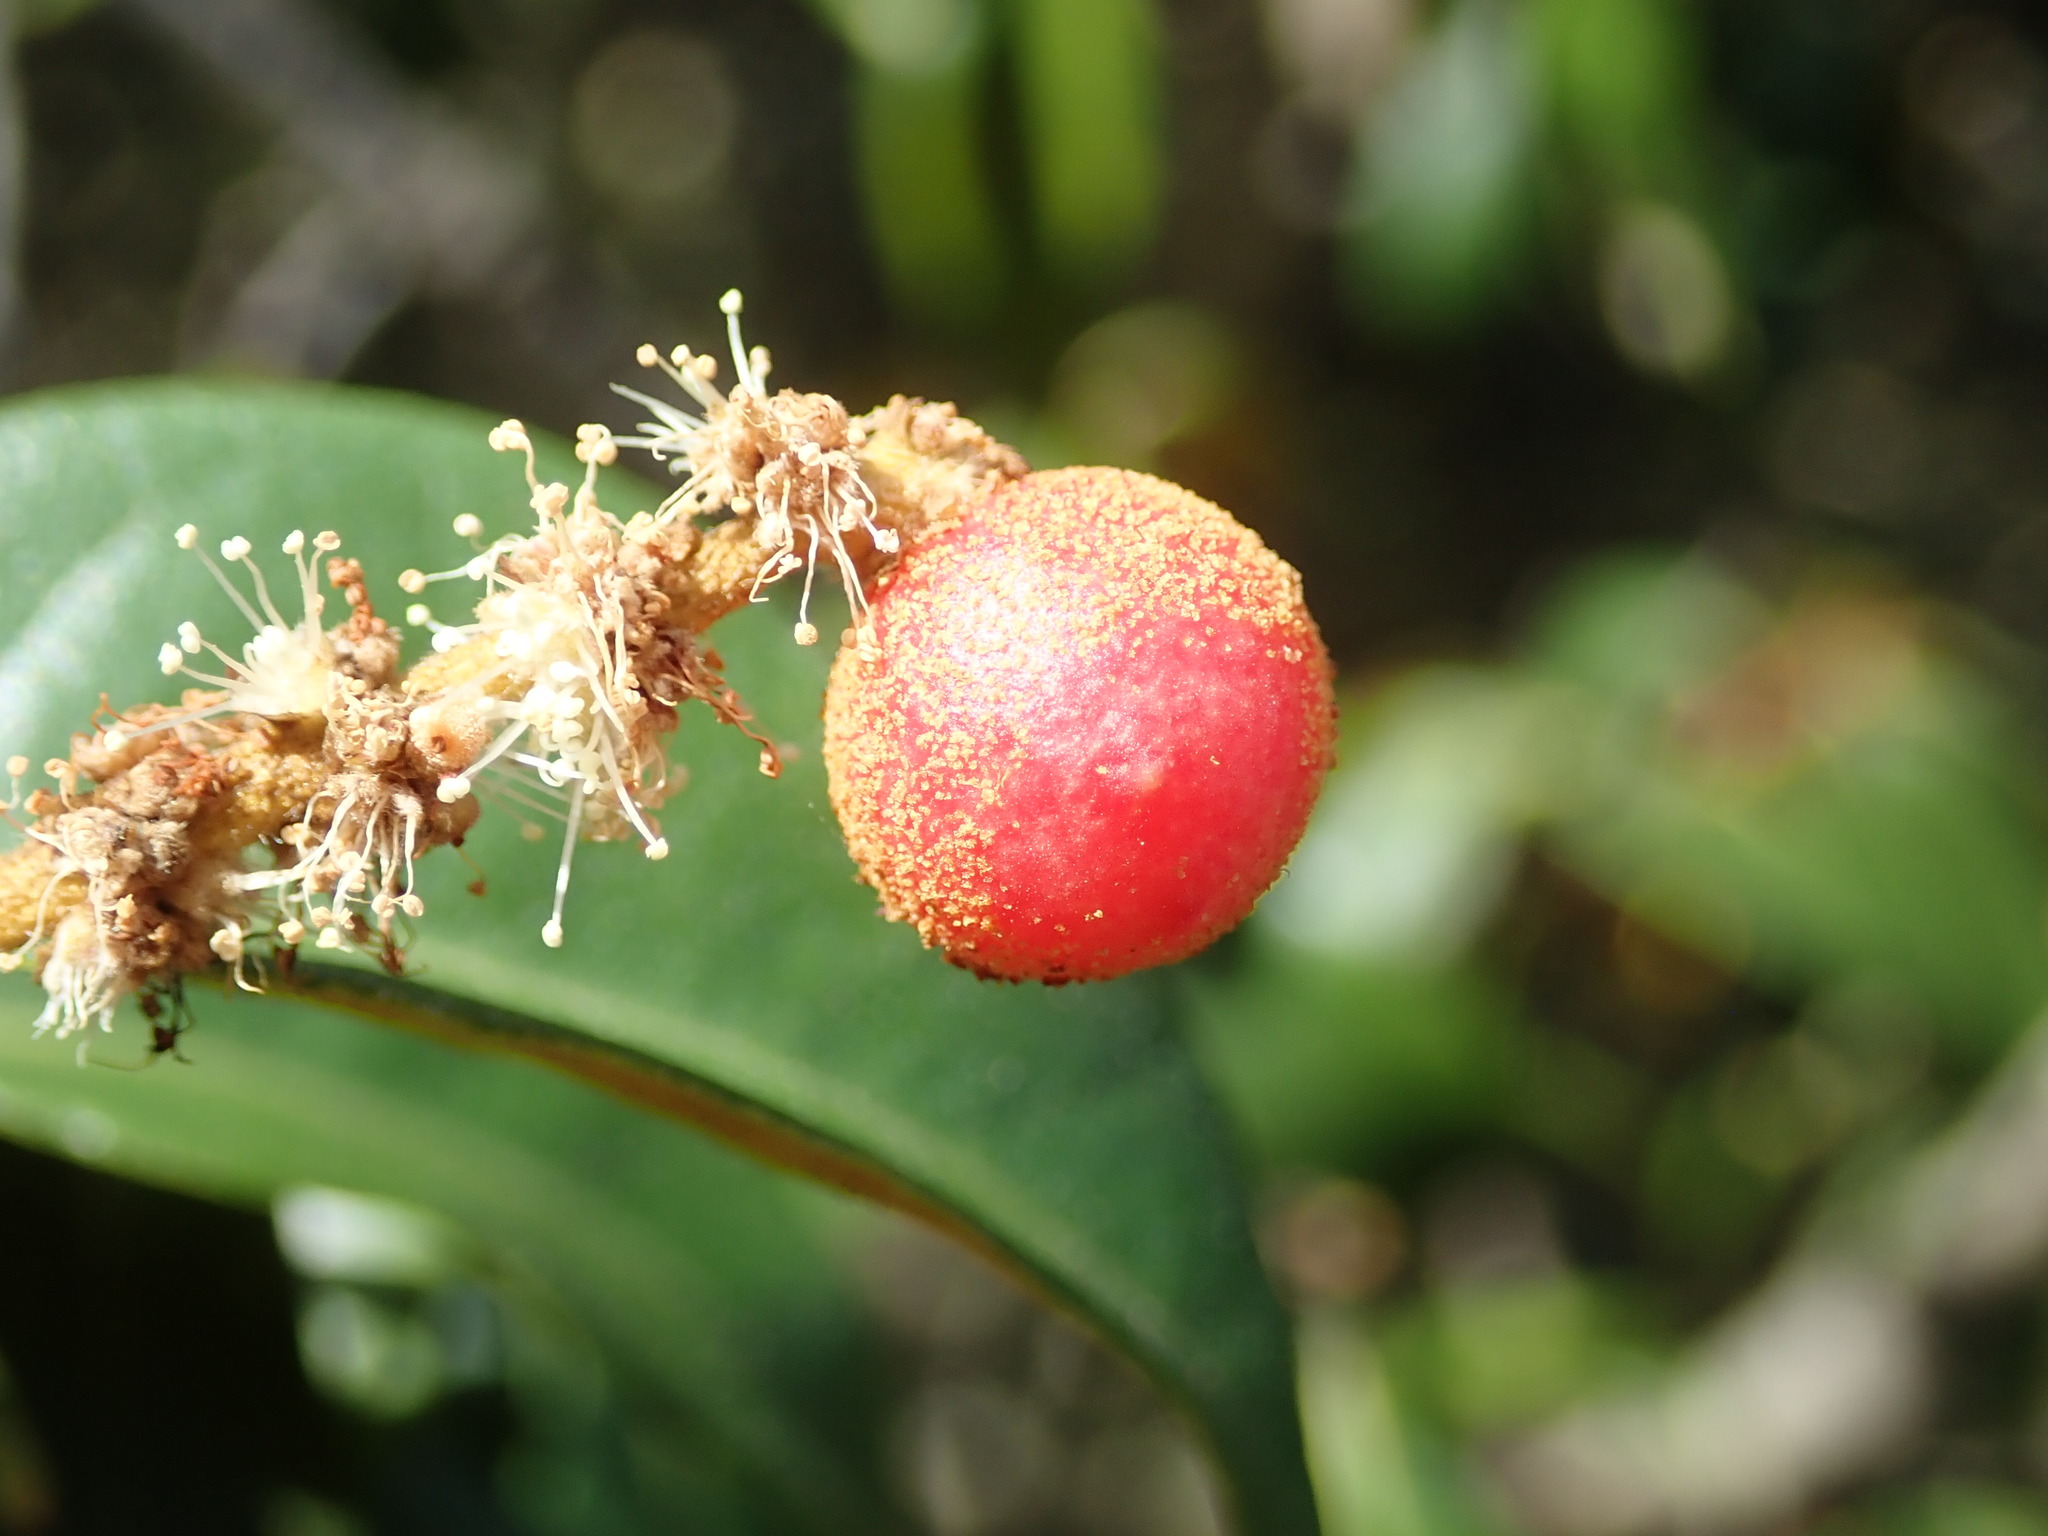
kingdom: Animalia
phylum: Arthropoda
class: Insecta
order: Hymenoptera
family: Cynipidae
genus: Synergus
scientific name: Synergus castanopsidis
